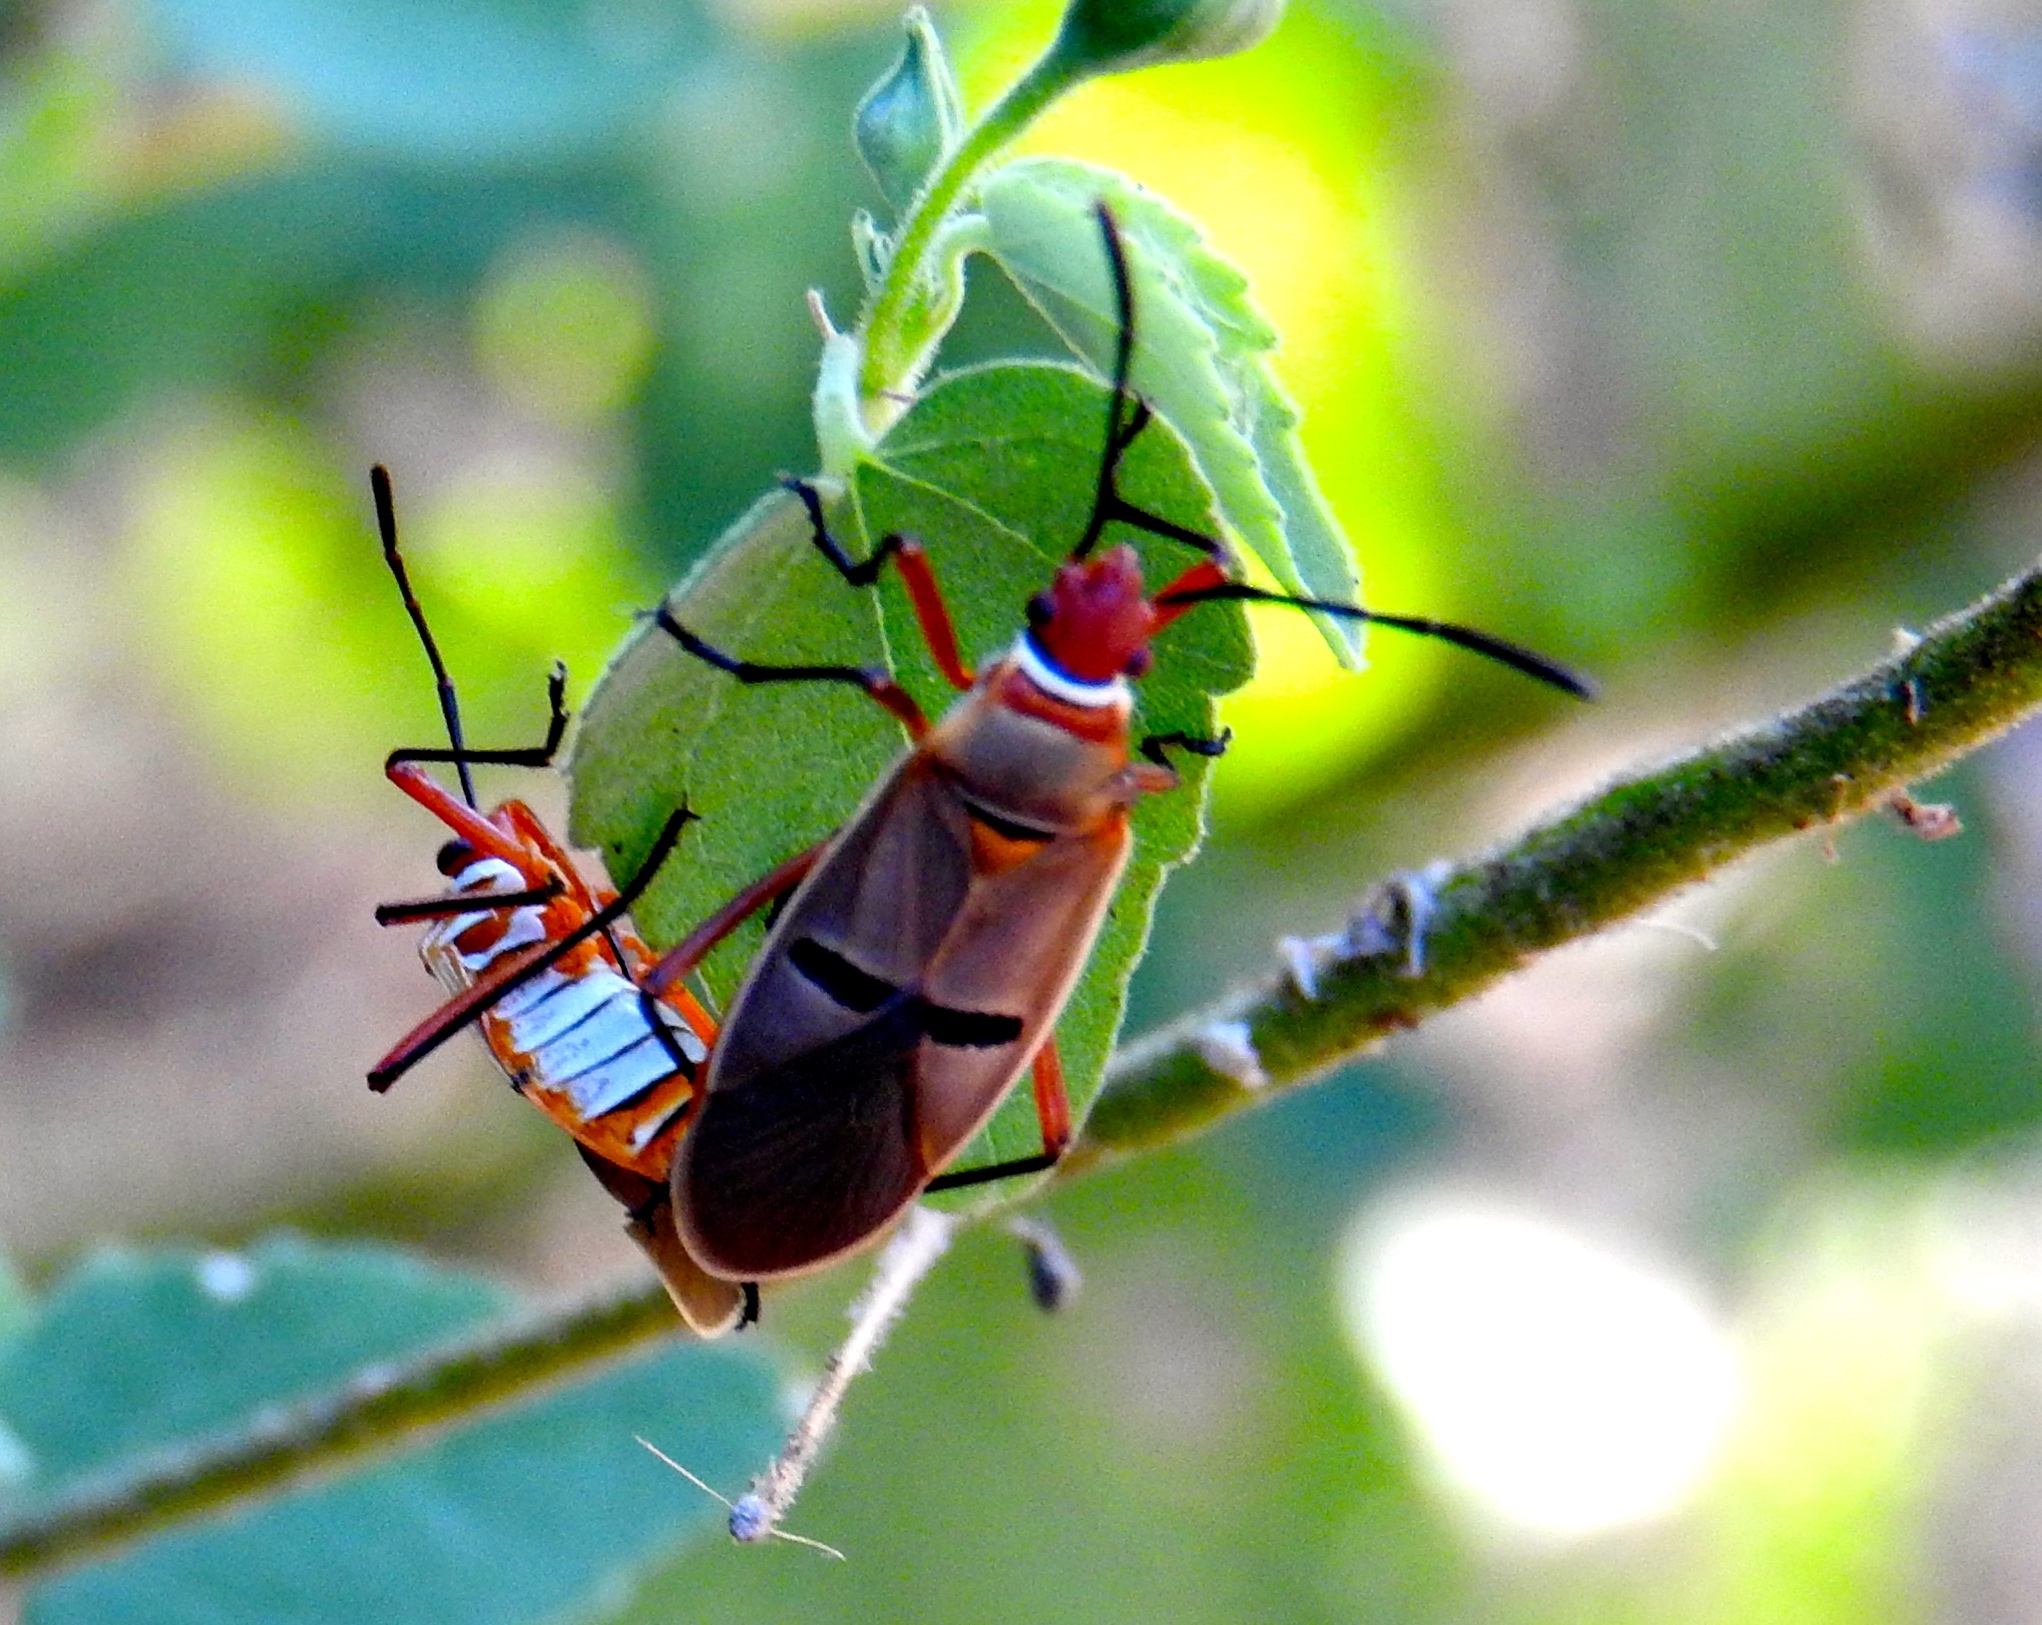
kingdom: Animalia
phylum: Arthropoda
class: Insecta
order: Hemiptera
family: Pyrrhocoridae
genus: Dysdercus
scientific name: Dysdercus
